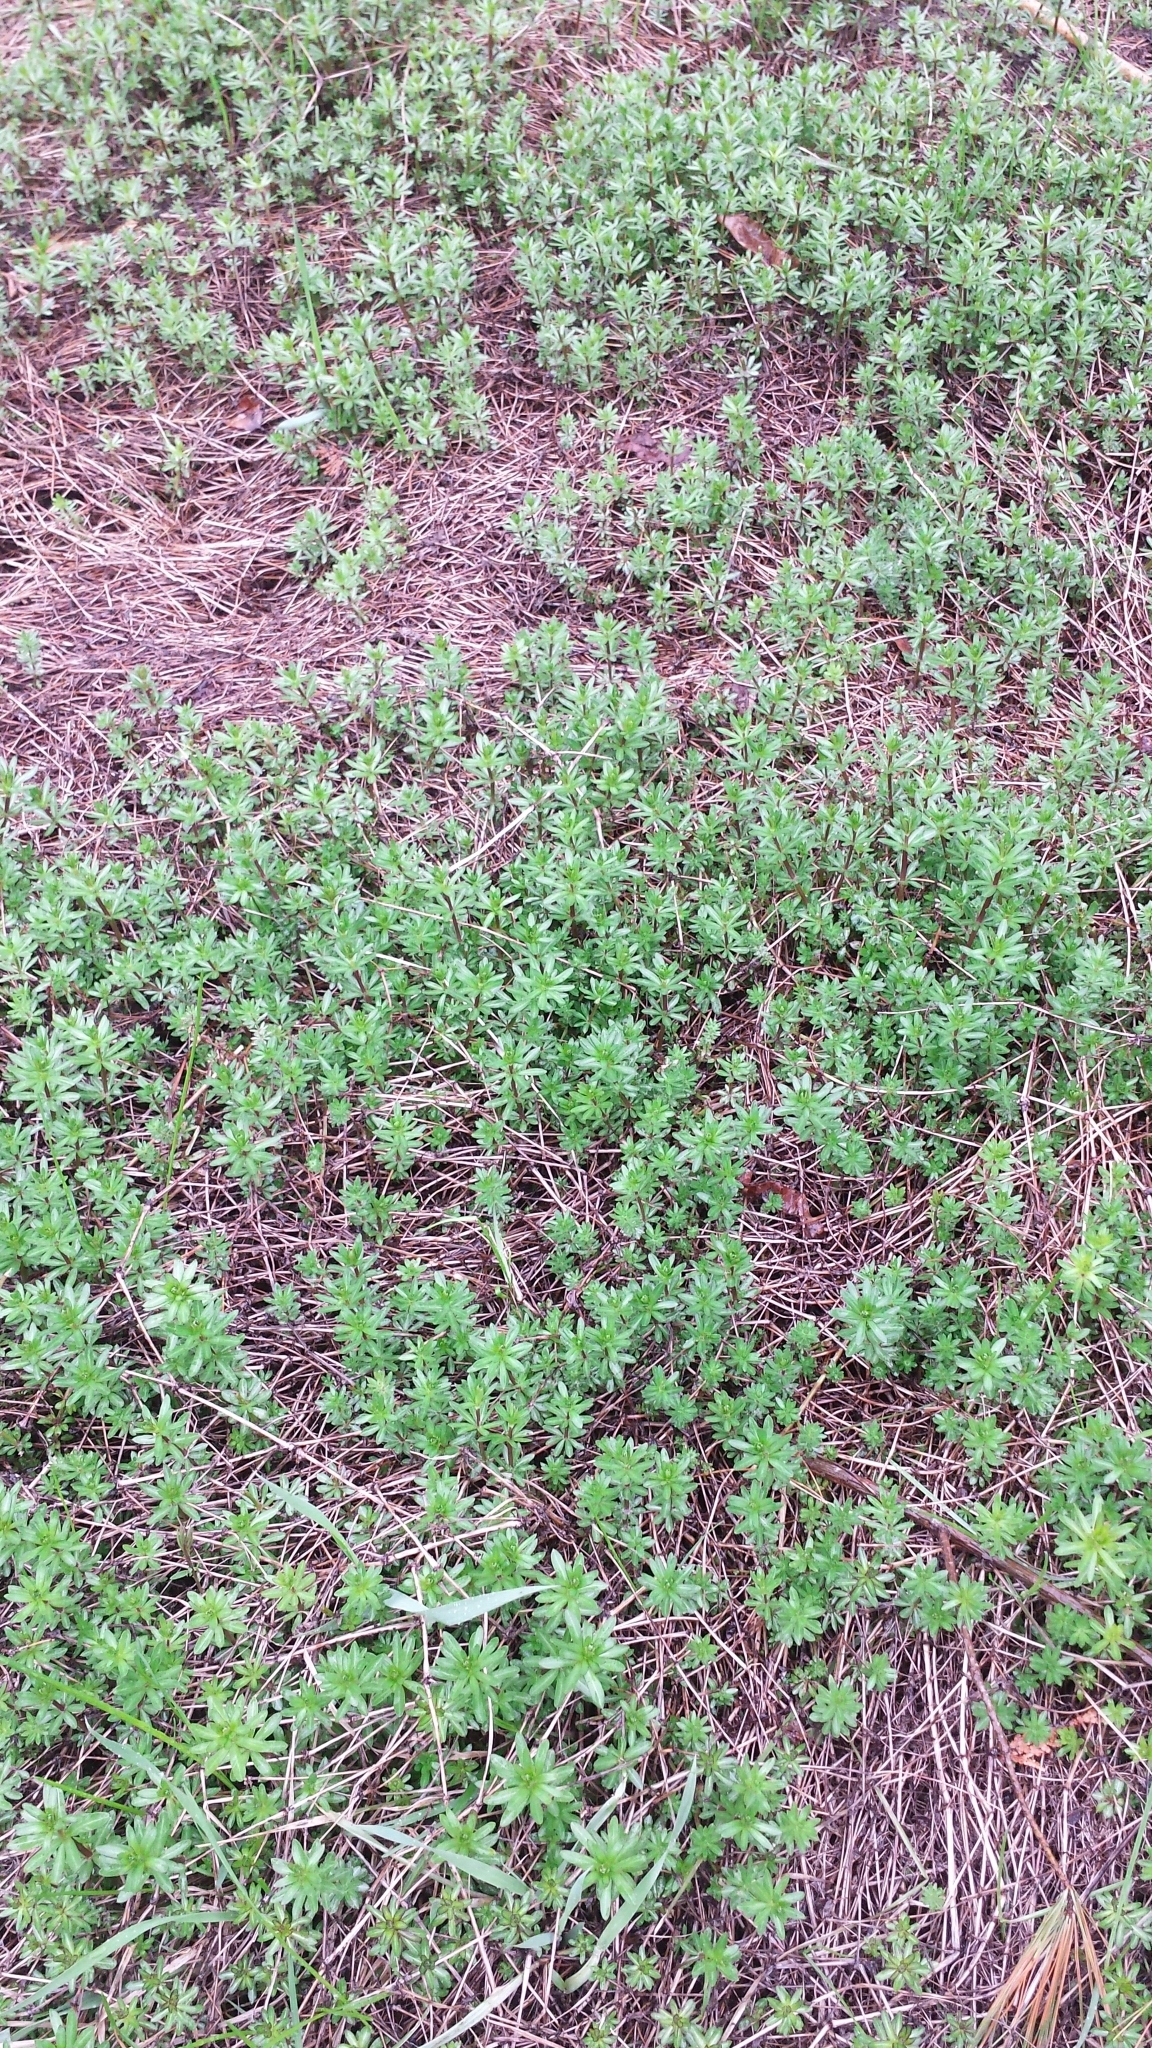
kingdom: Plantae
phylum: Tracheophyta
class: Magnoliopsida
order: Gentianales
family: Rubiaceae
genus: Galium
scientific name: Galium mollugo
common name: Hedge bedstraw
